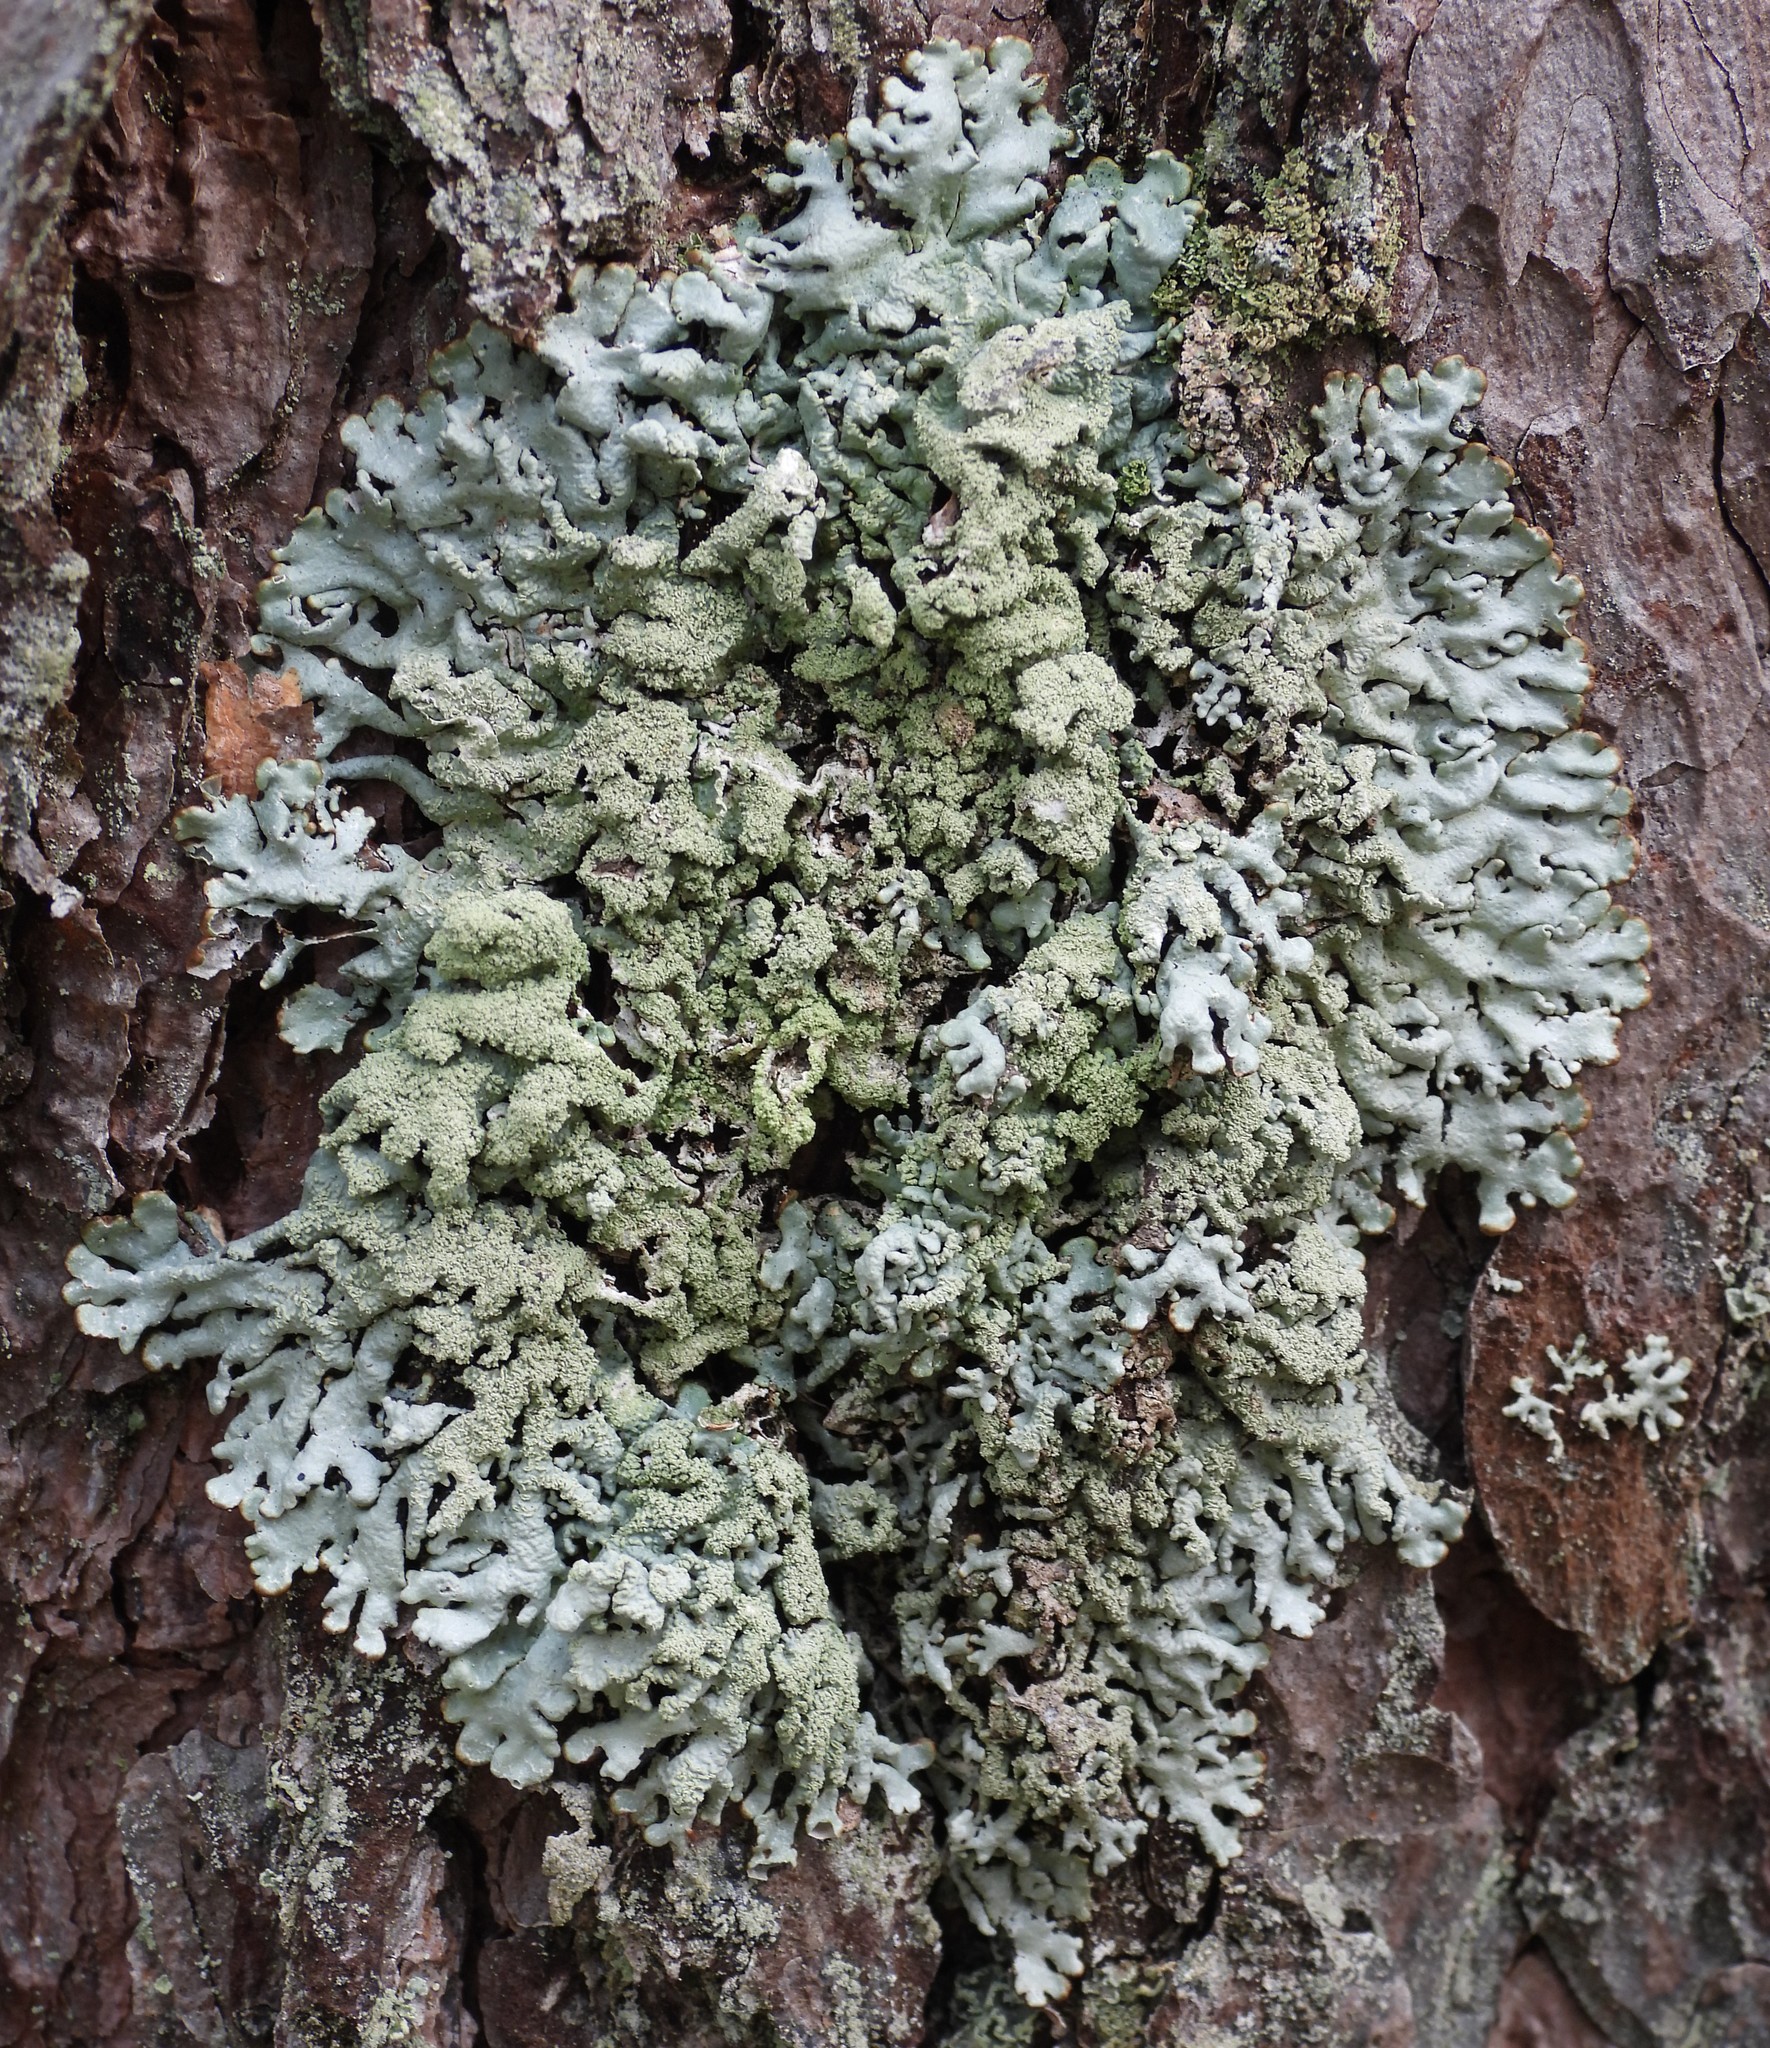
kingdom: Fungi
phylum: Ascomycota
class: Lecanoromycetes
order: Lecanorales
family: Parmeliaceae
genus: Hypogymnia
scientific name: Hypogymnia farinacea
